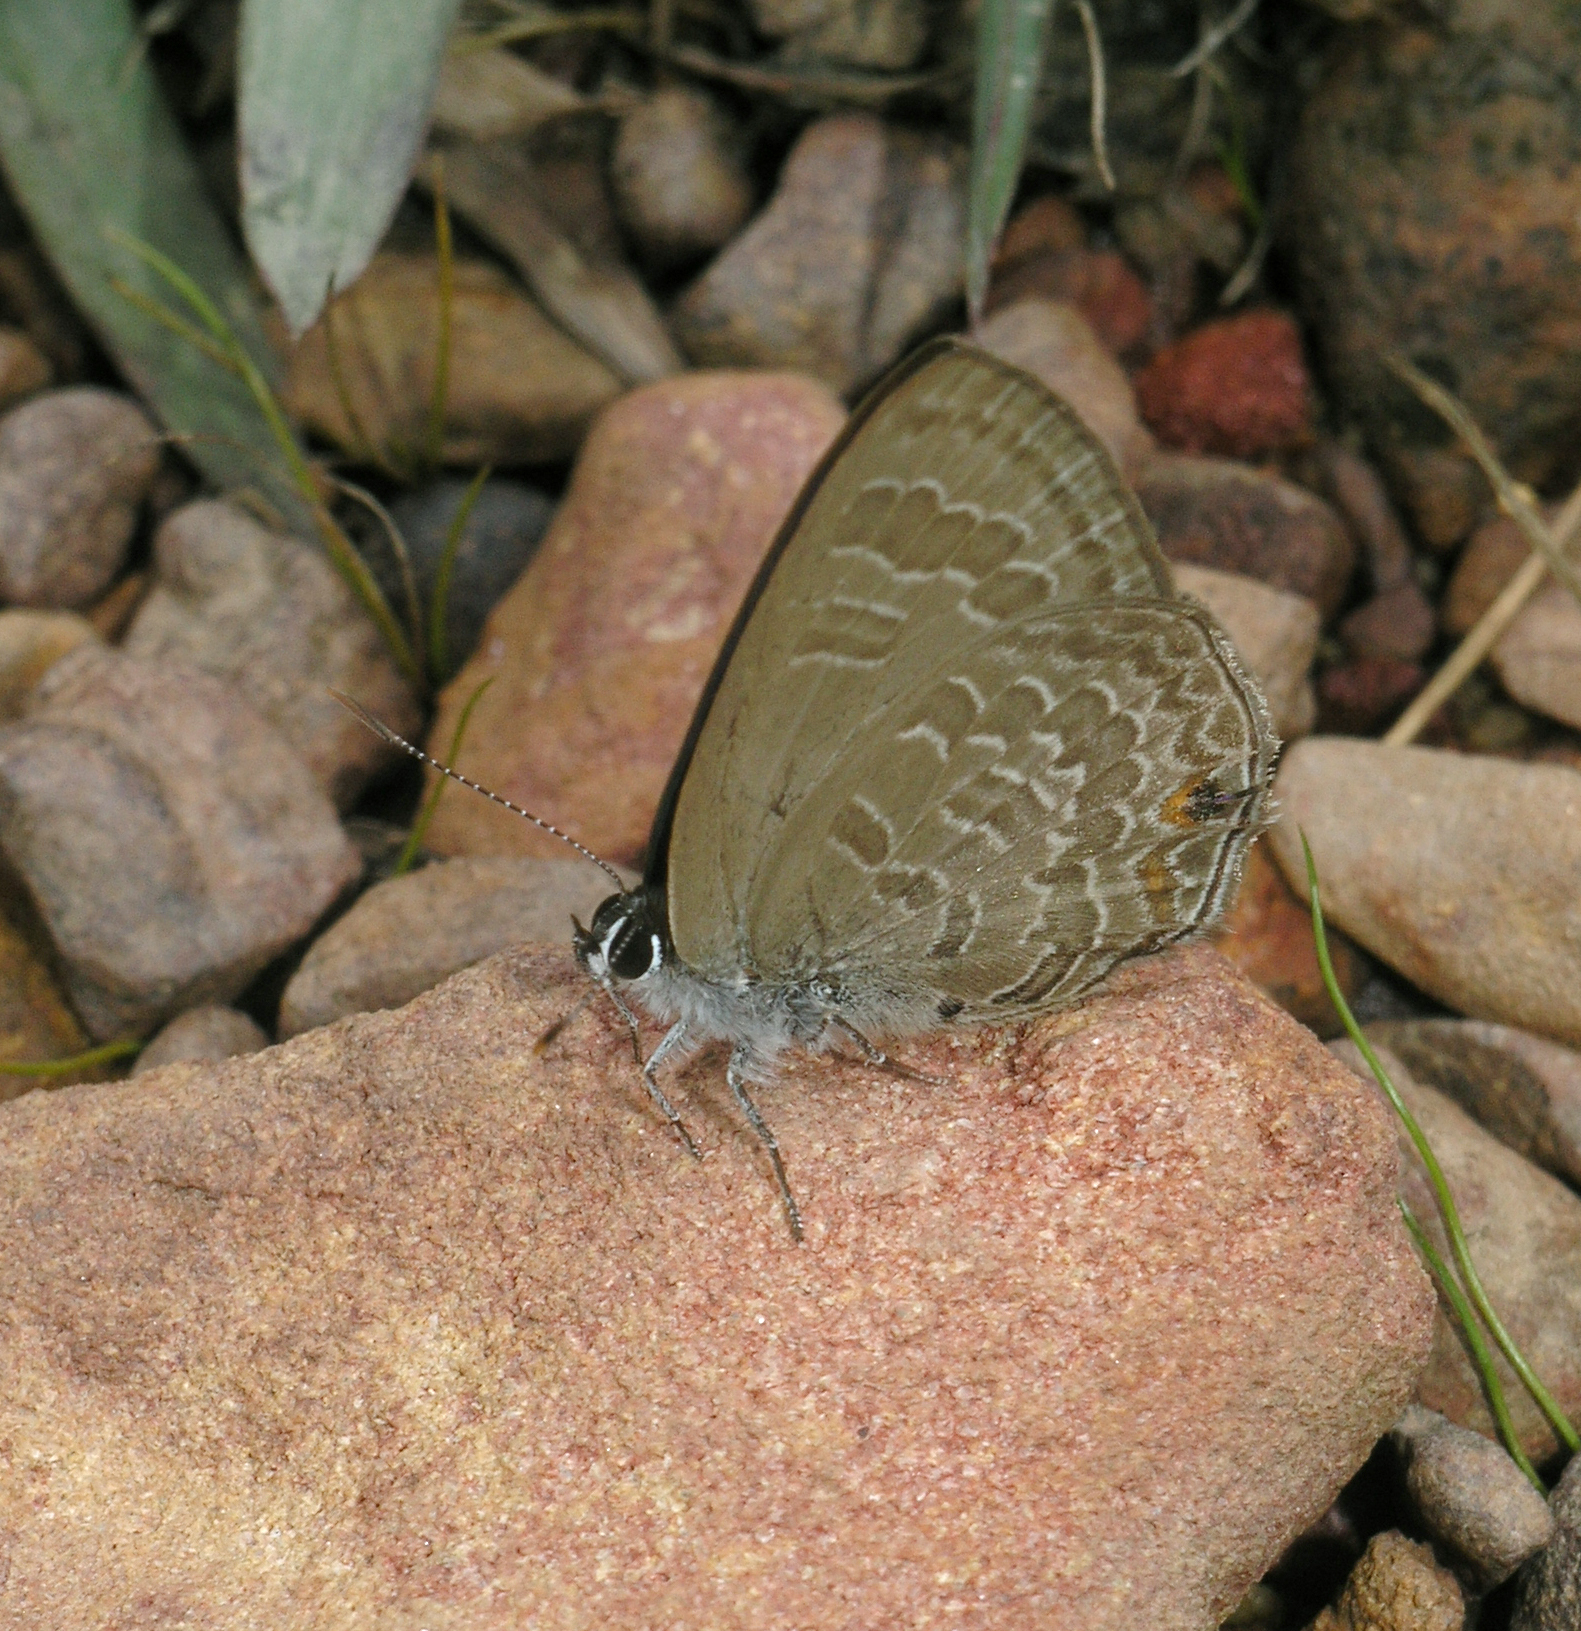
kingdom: Animalia
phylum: Arthropoda
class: Insecta
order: Lepidoptera
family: Lycaenidae
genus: Anthene
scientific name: Anthene emolus
